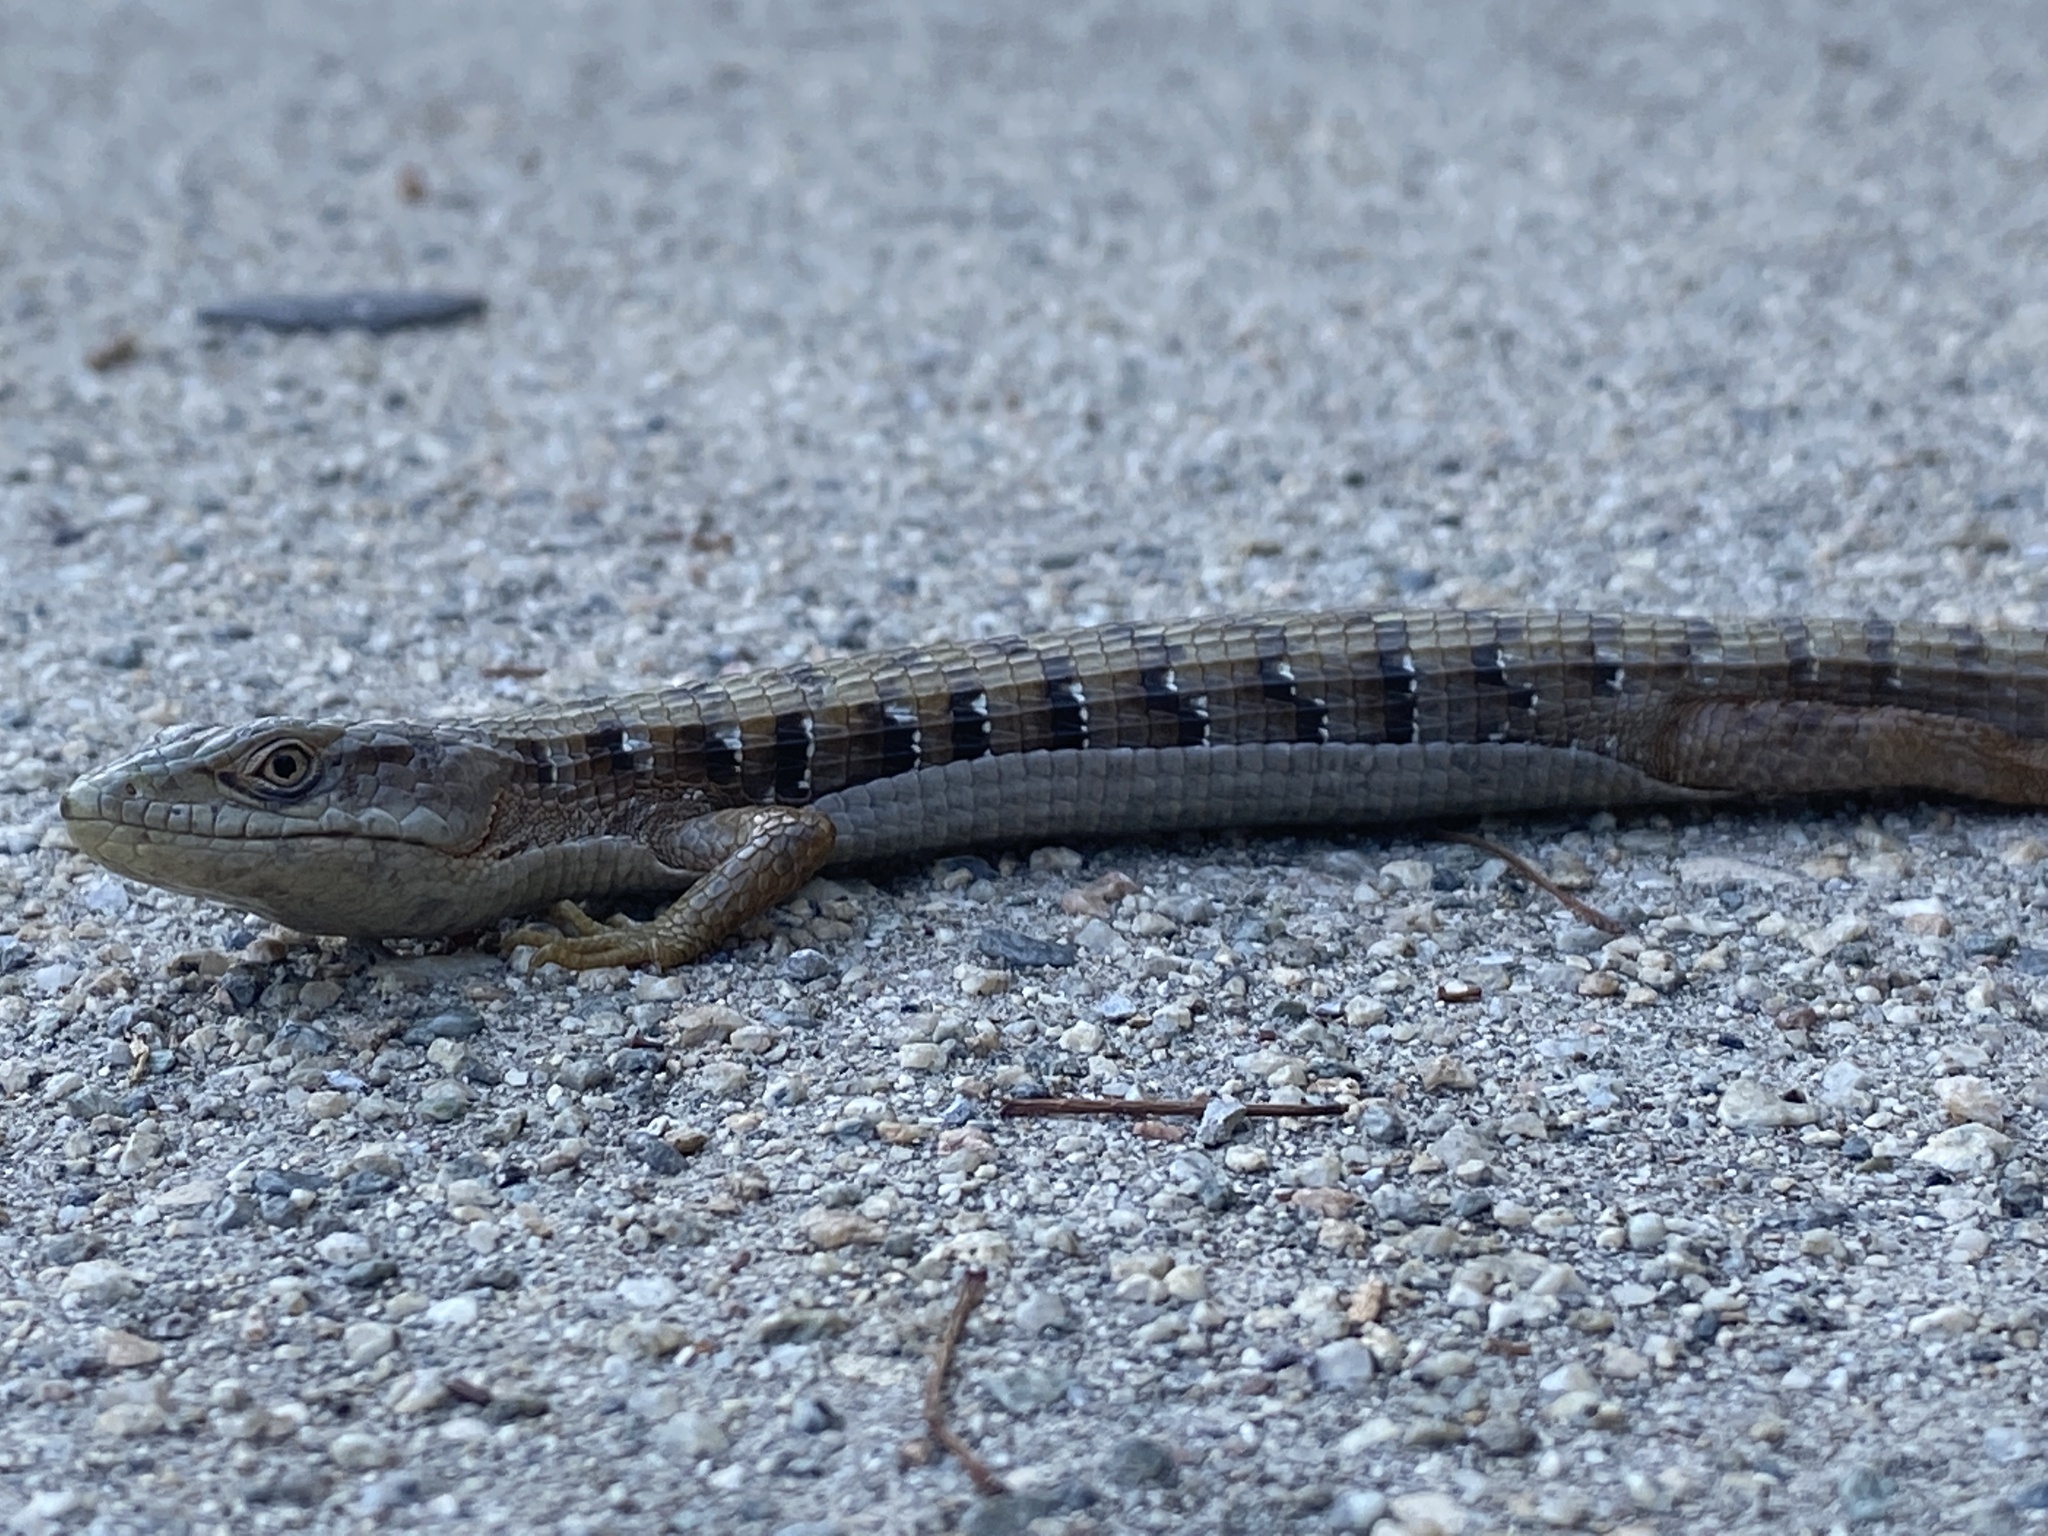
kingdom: Animalia
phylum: Chordata
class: Squamata
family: Anguidae
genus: Elgaria
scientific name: Elgaria multicarinata
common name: Southern alligator lizard
